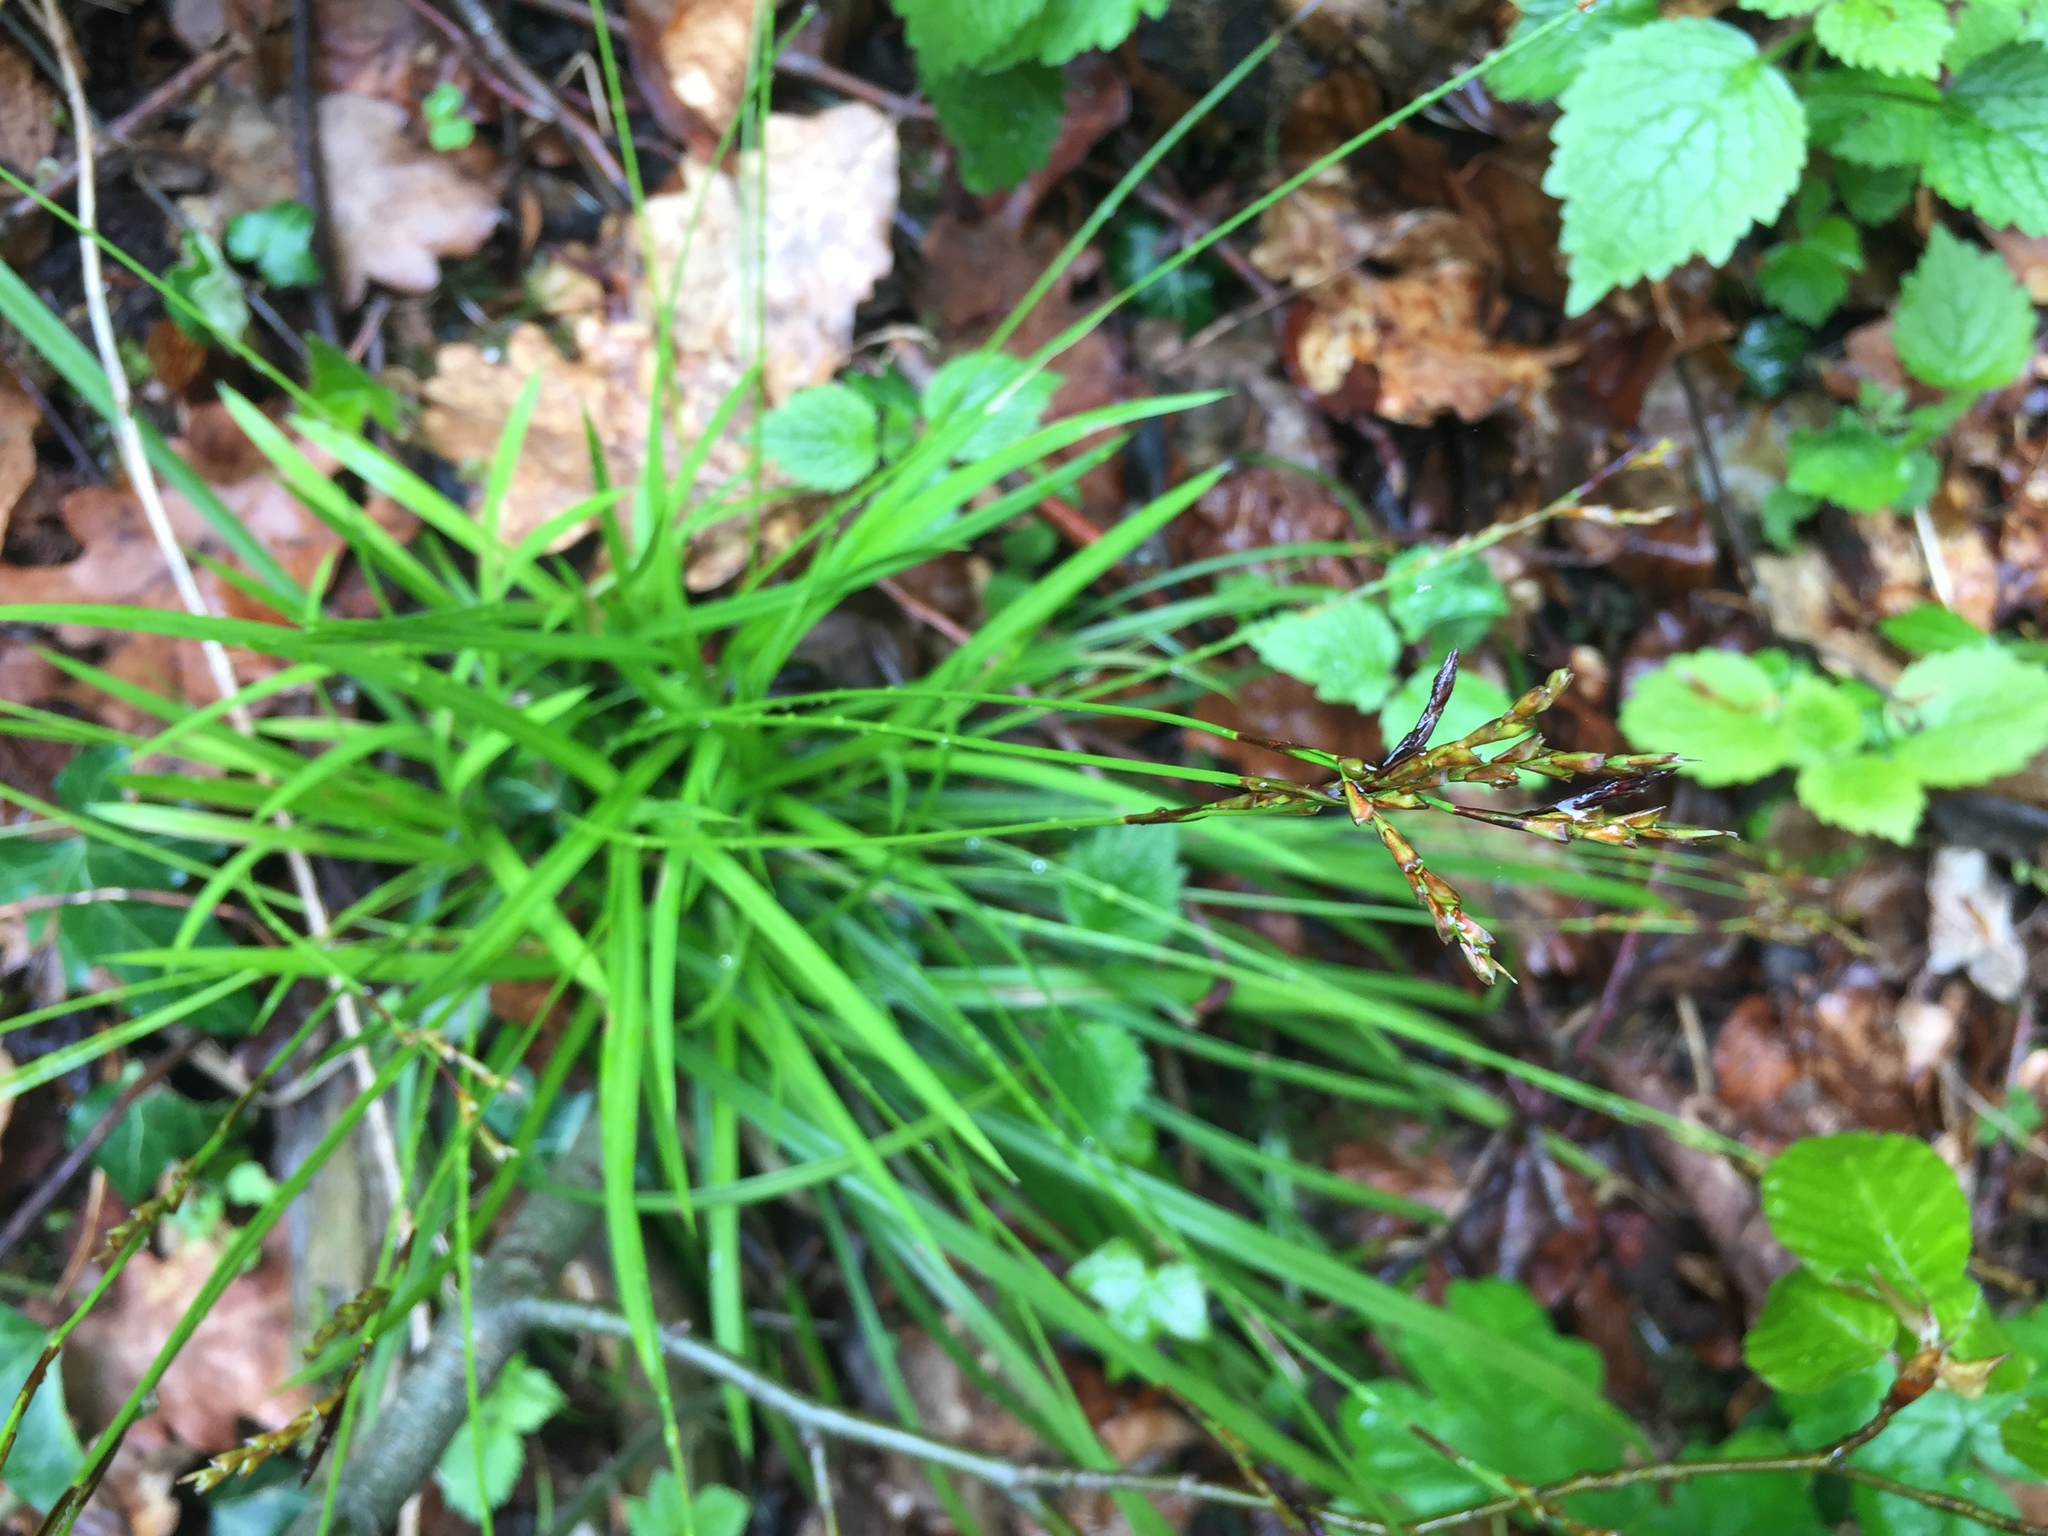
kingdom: Plantae
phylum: Tracheophyta
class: Liliopsida
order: Poales
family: Cyperaceae
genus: Carex
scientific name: Carex digitata
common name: Fingered sedge
